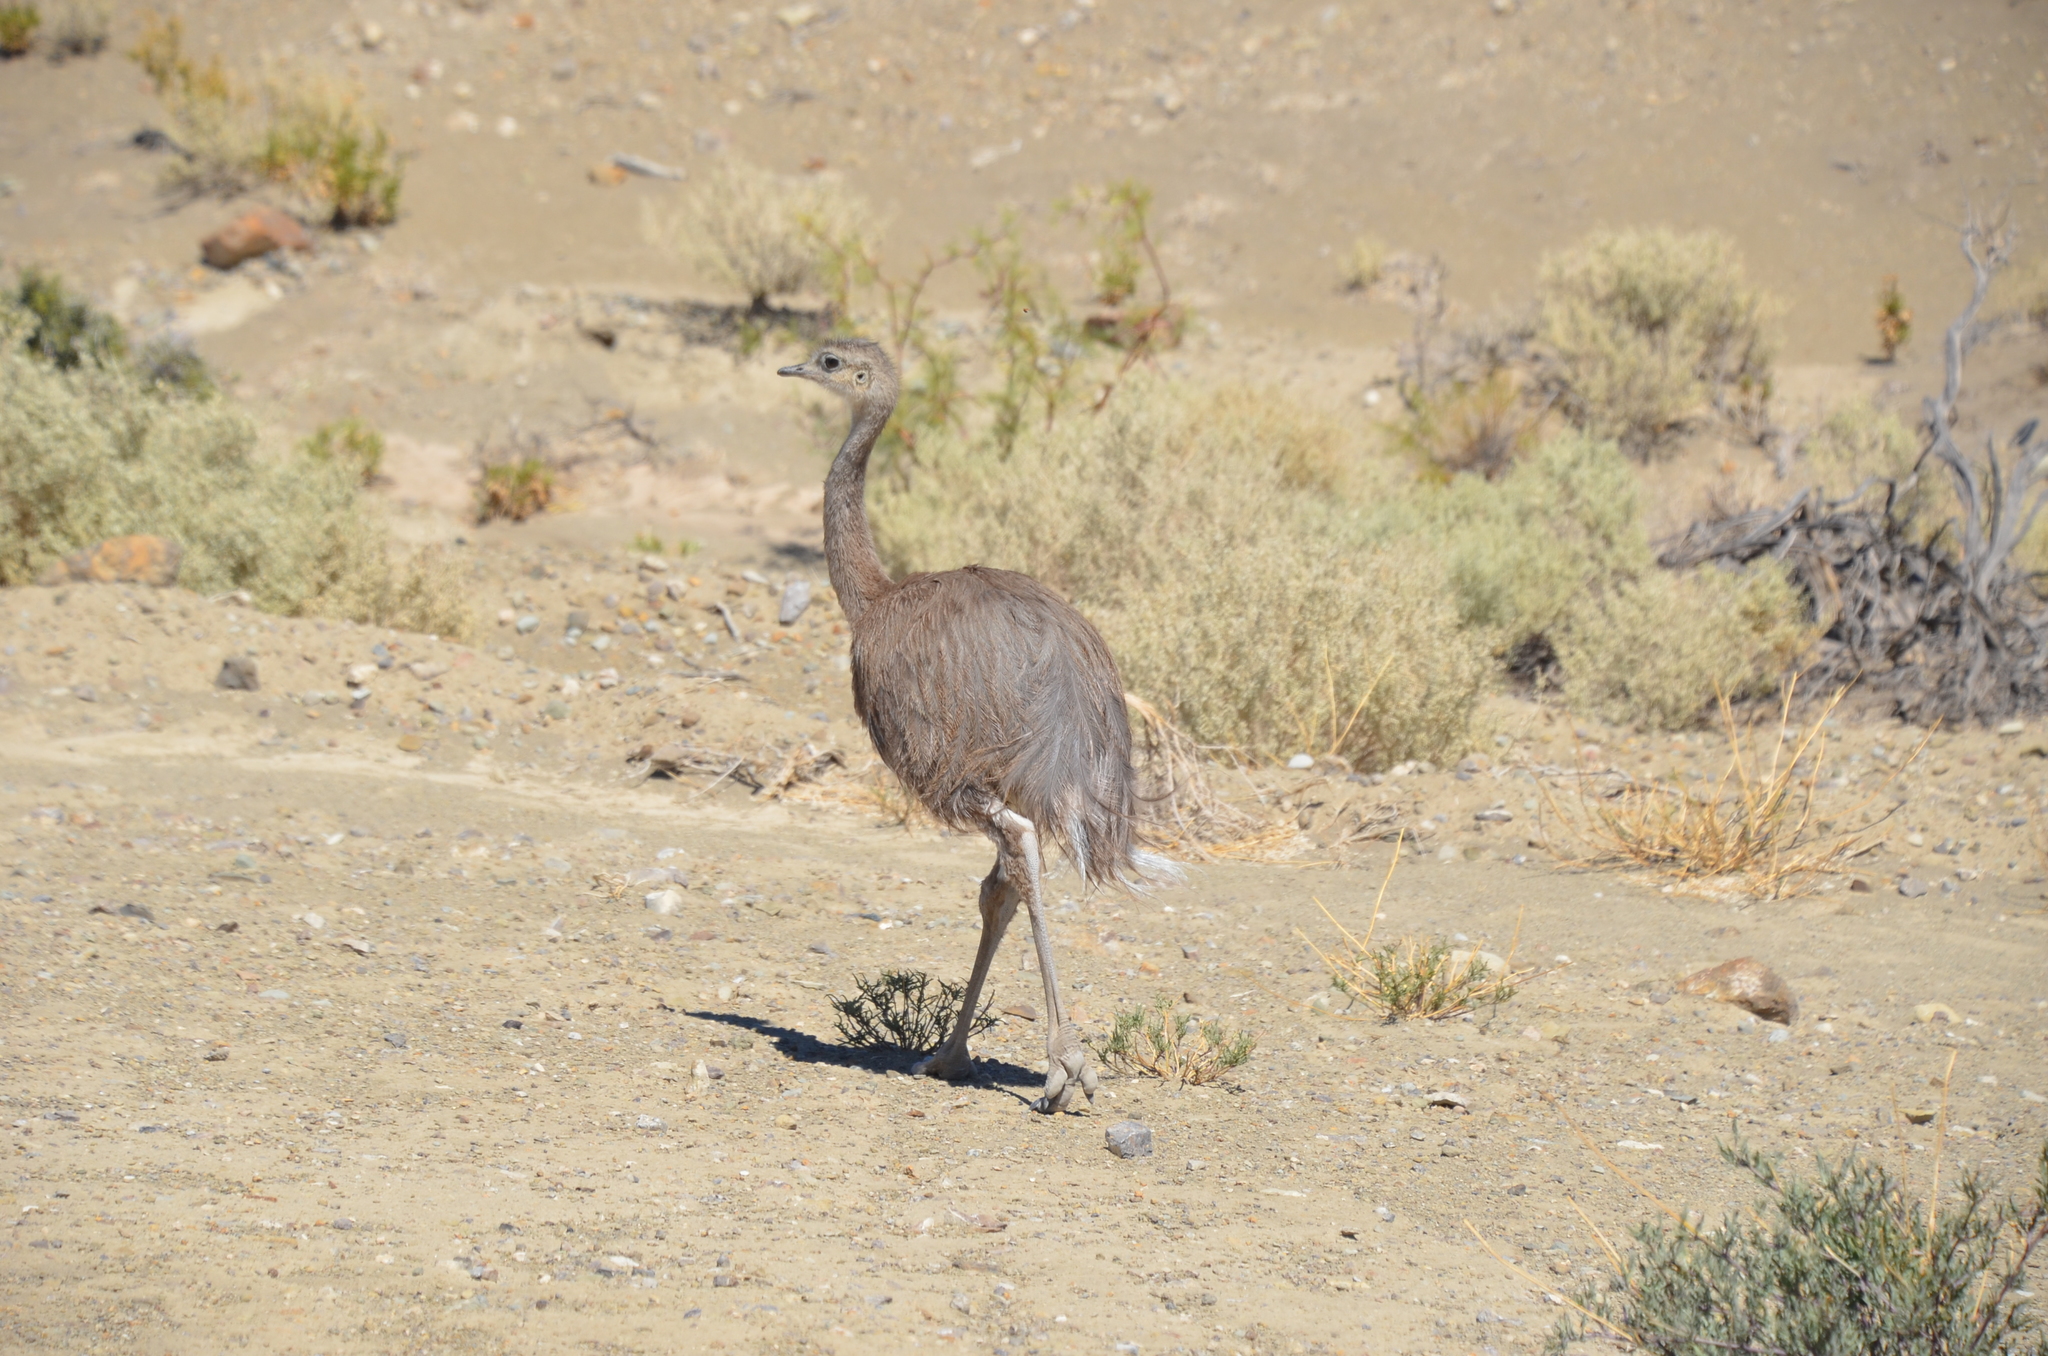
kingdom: Animalia
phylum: Chordata
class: Aves
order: Rheiformes
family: Rheidae
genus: Rhea
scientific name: Rhea pennata
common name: Lesser rhea
